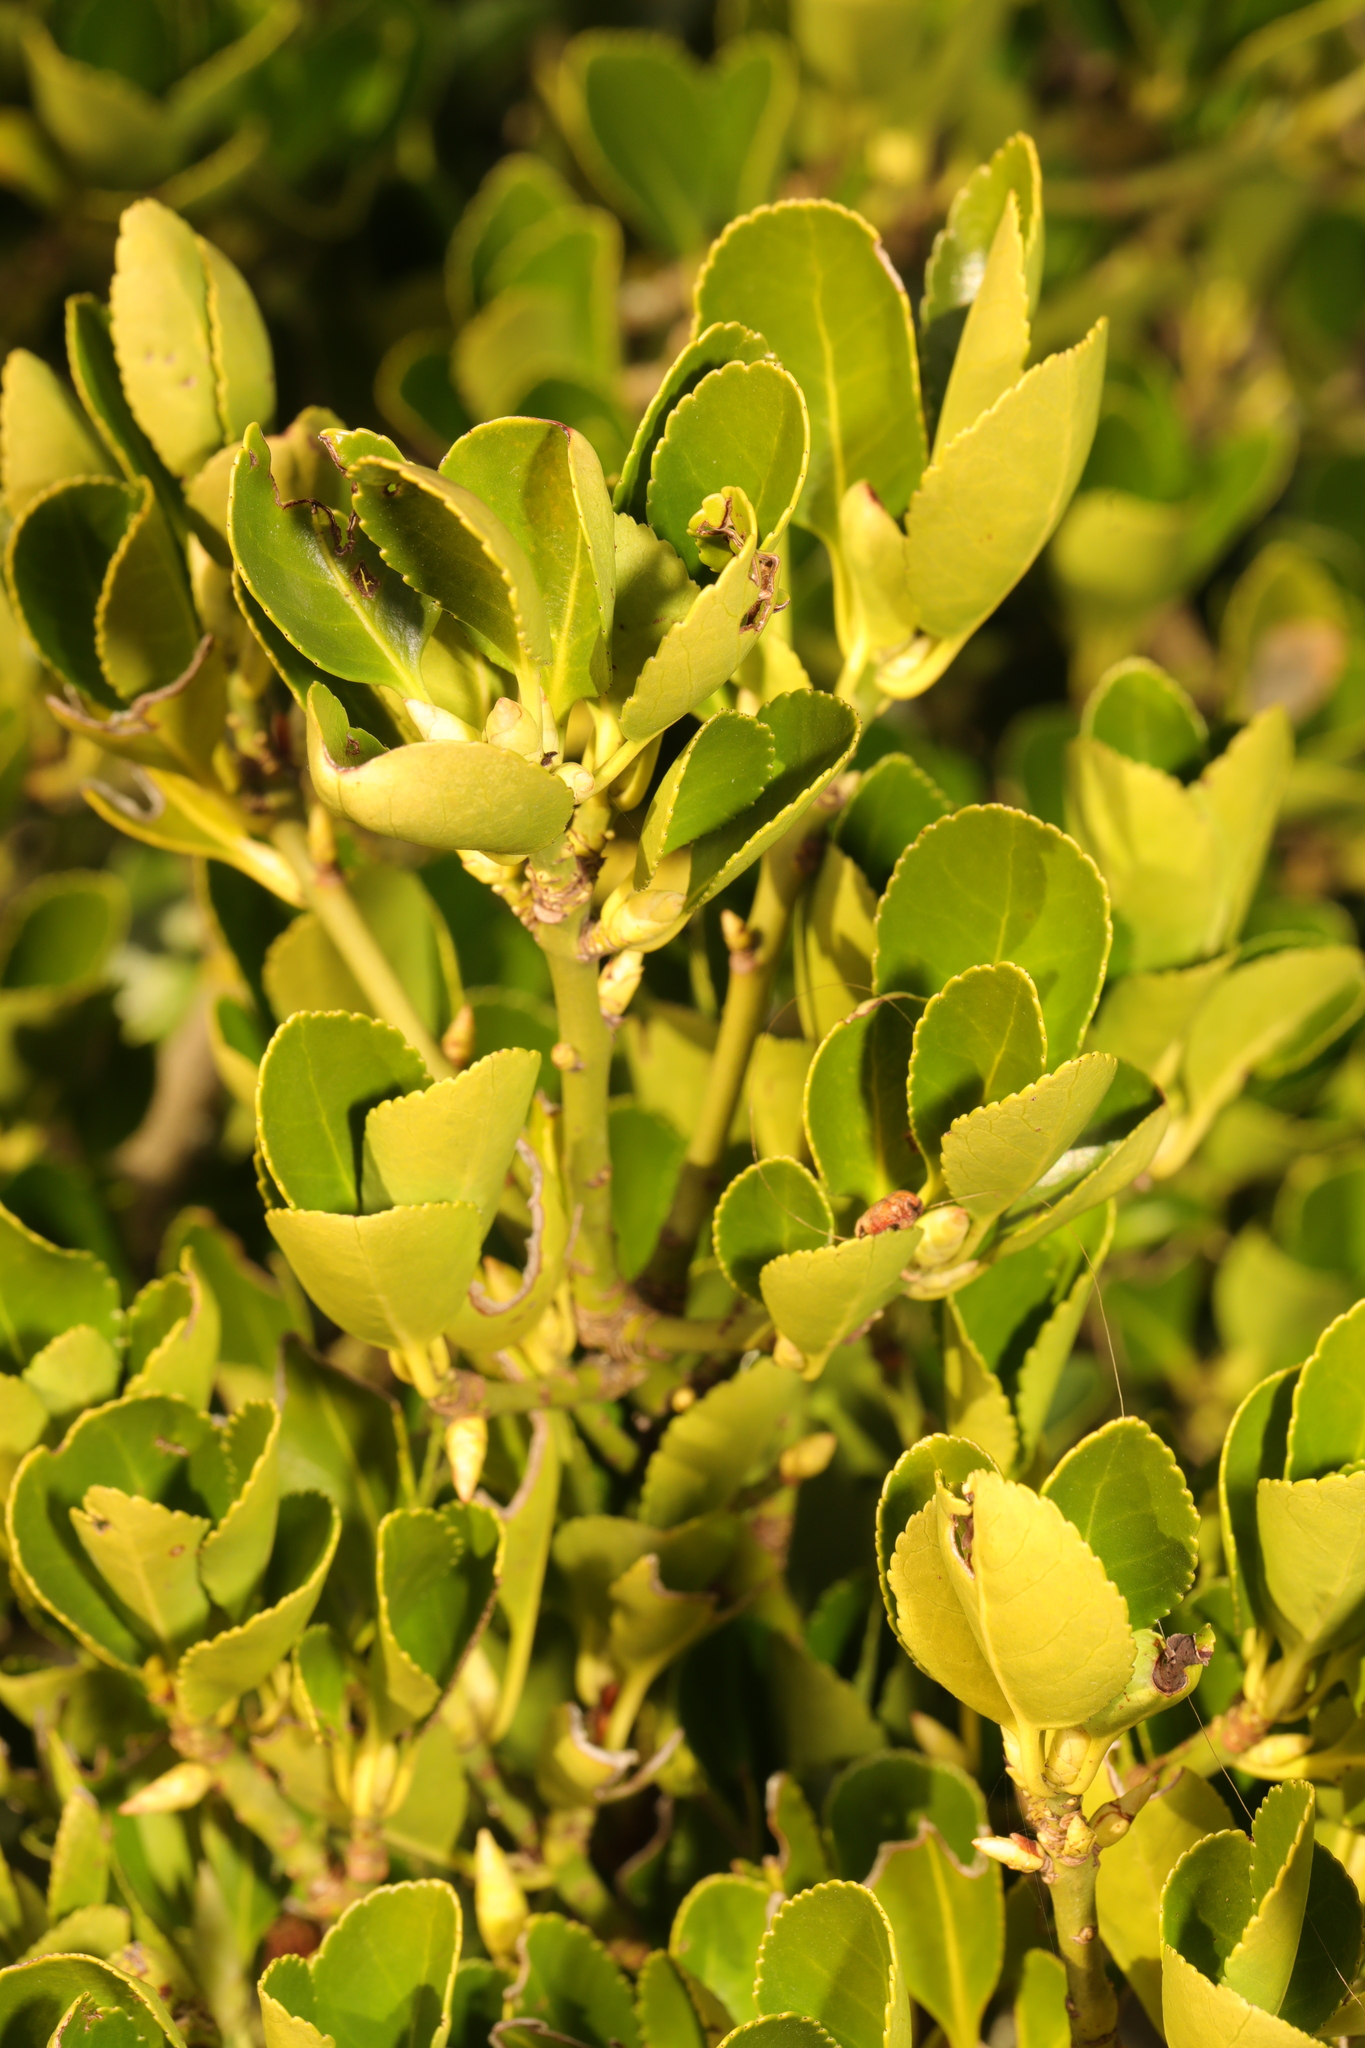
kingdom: Plantae
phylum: Tracheophyta
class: Magnoliopsida
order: Celastrales
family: Celastraceae
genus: Euonymus
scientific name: Euonymus japonicus
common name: Japanese spindletree
